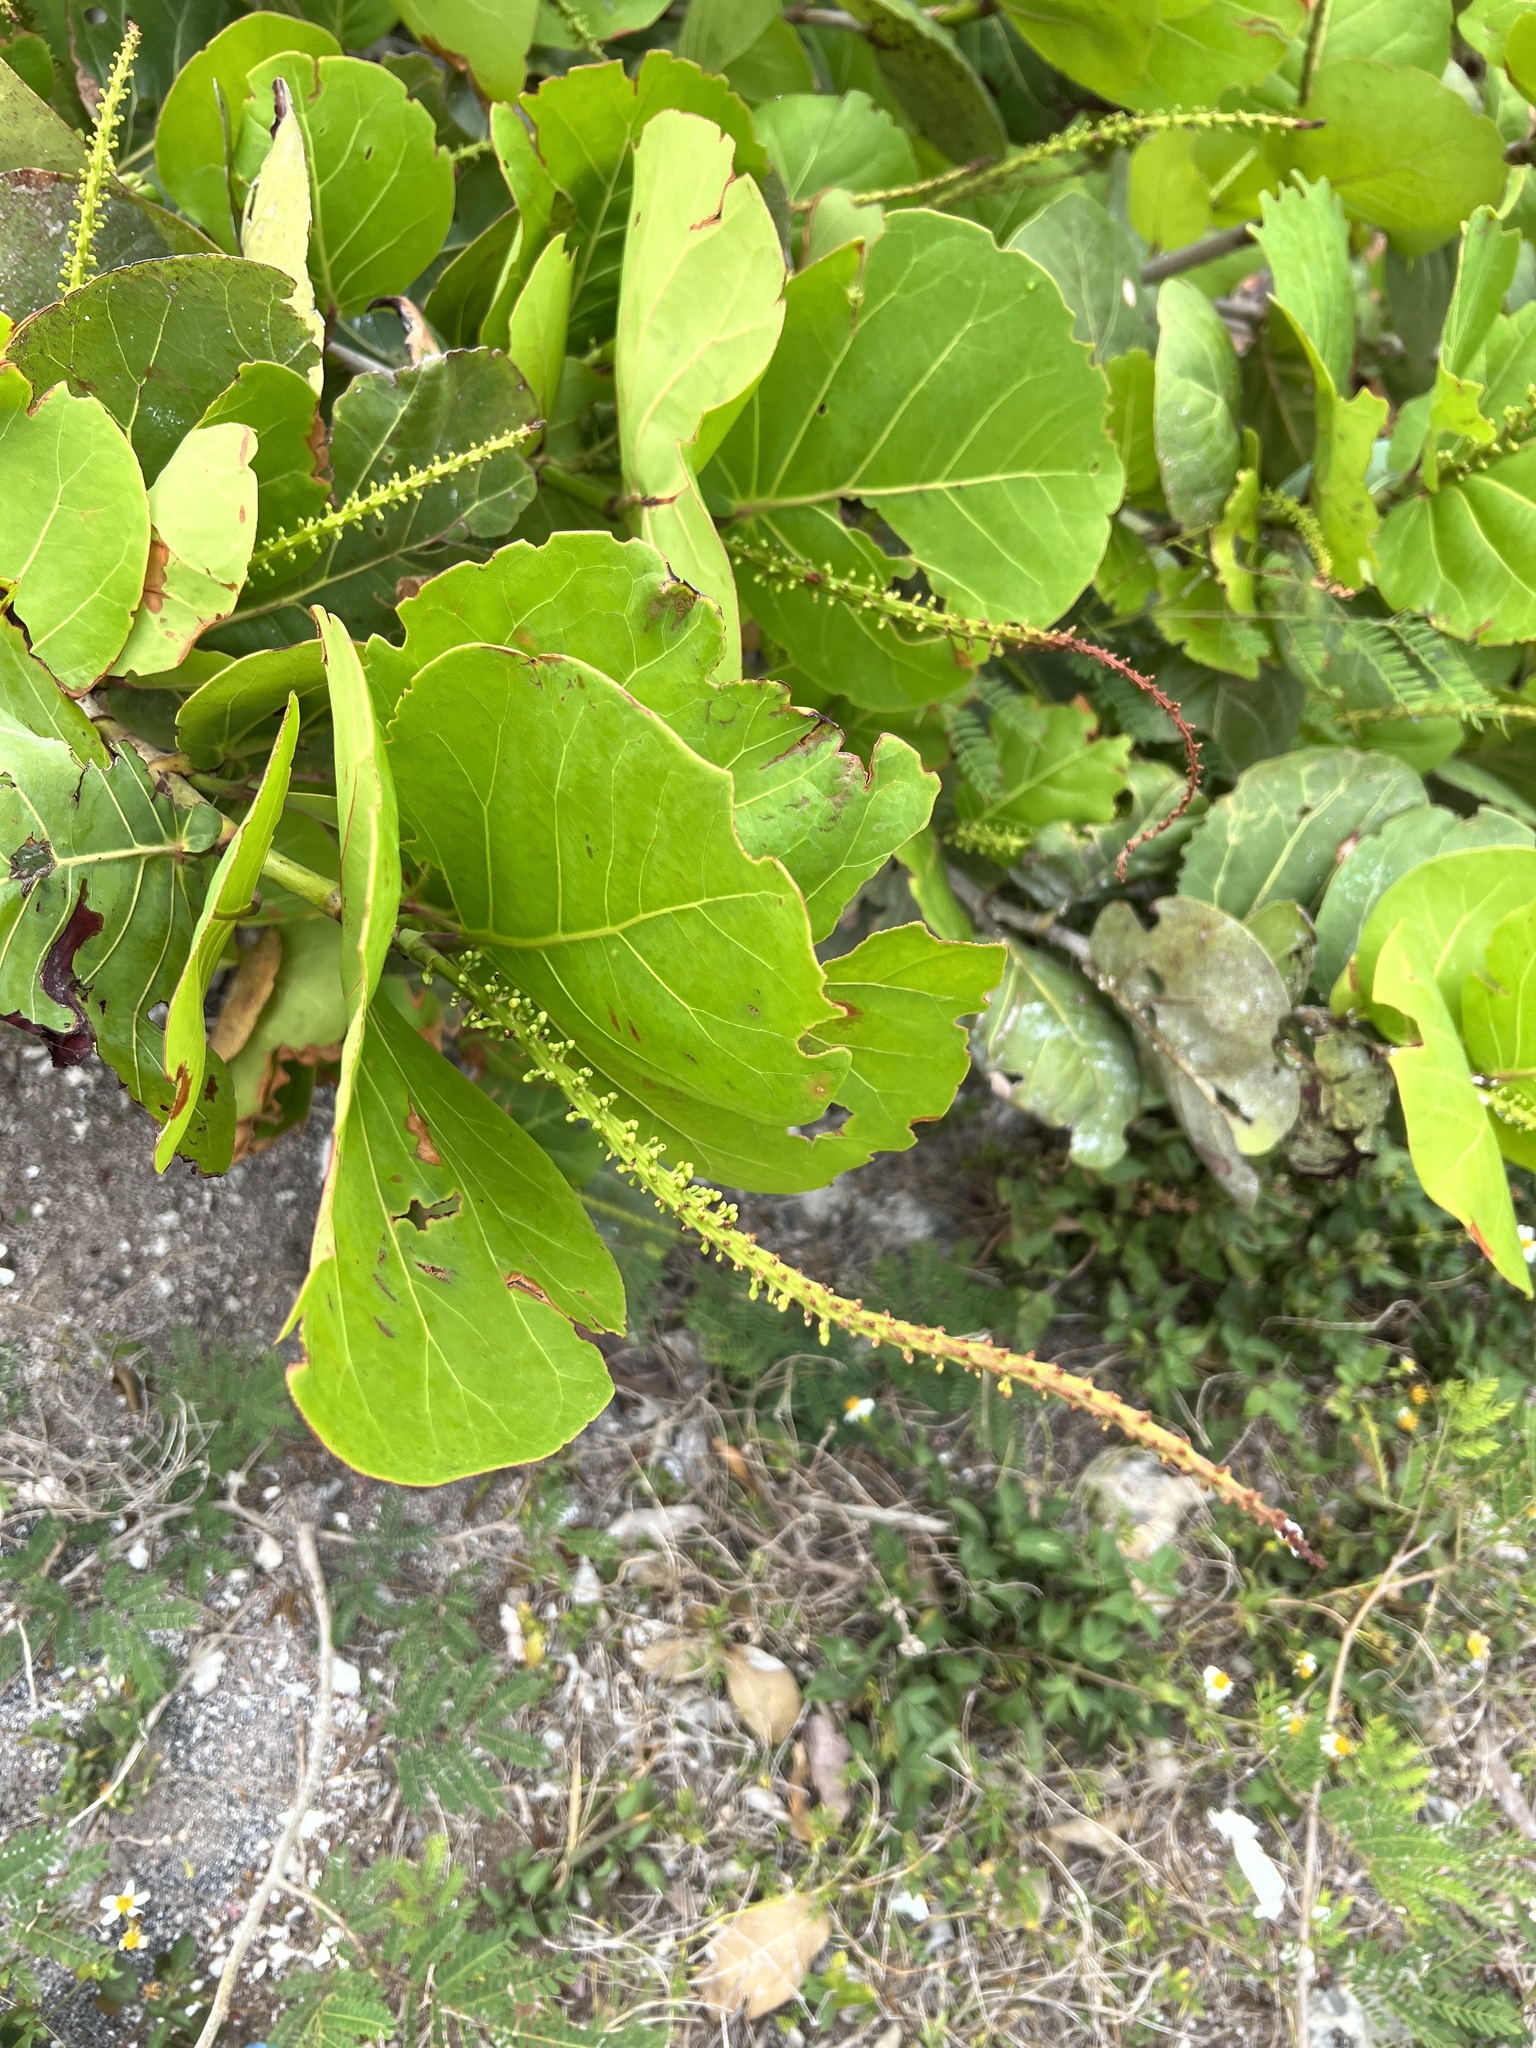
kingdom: Plantae
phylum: Tracheophyta
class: Magnoliopsida
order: Caryophyllales
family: Polygonaceae
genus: Coccoloba
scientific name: Coccoloba uvifera
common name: Seagrape
